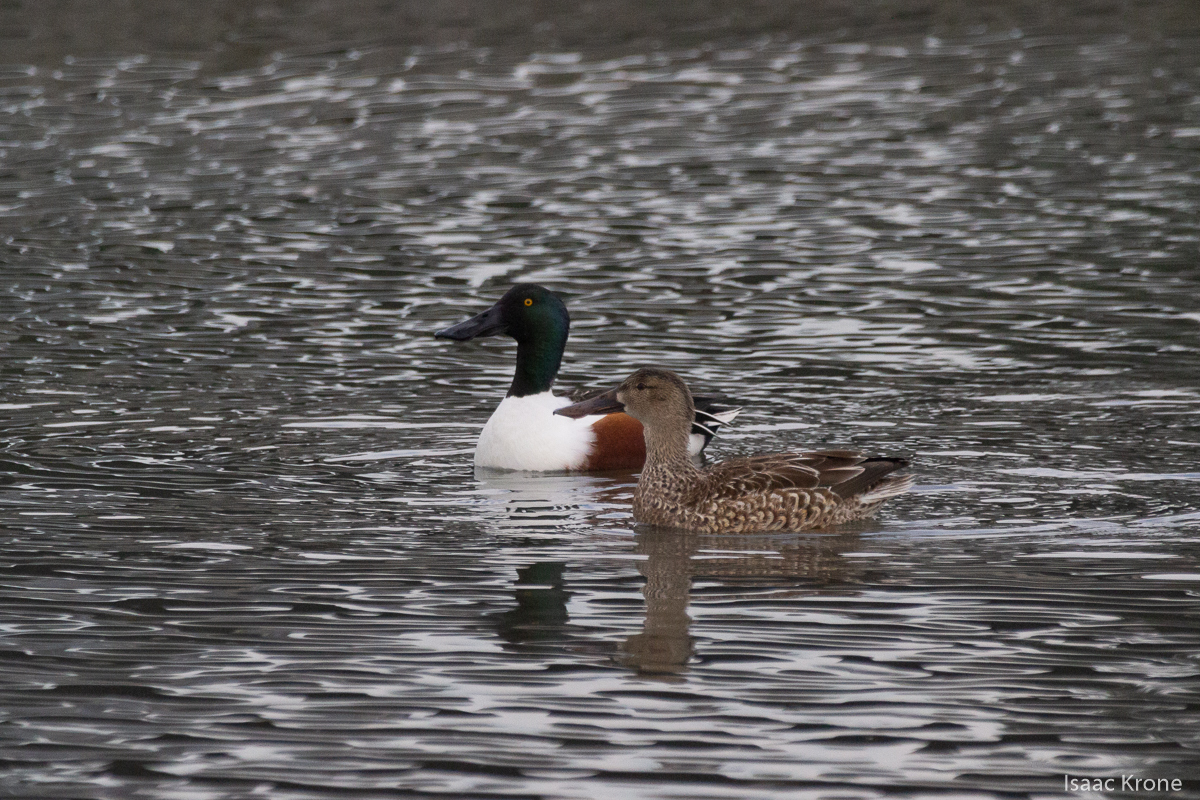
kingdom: Animalia
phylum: Chordata
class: Aves
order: Anseriformes
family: Anatidae
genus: Spatula
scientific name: Spatula clypeata
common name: Northern shoveler
